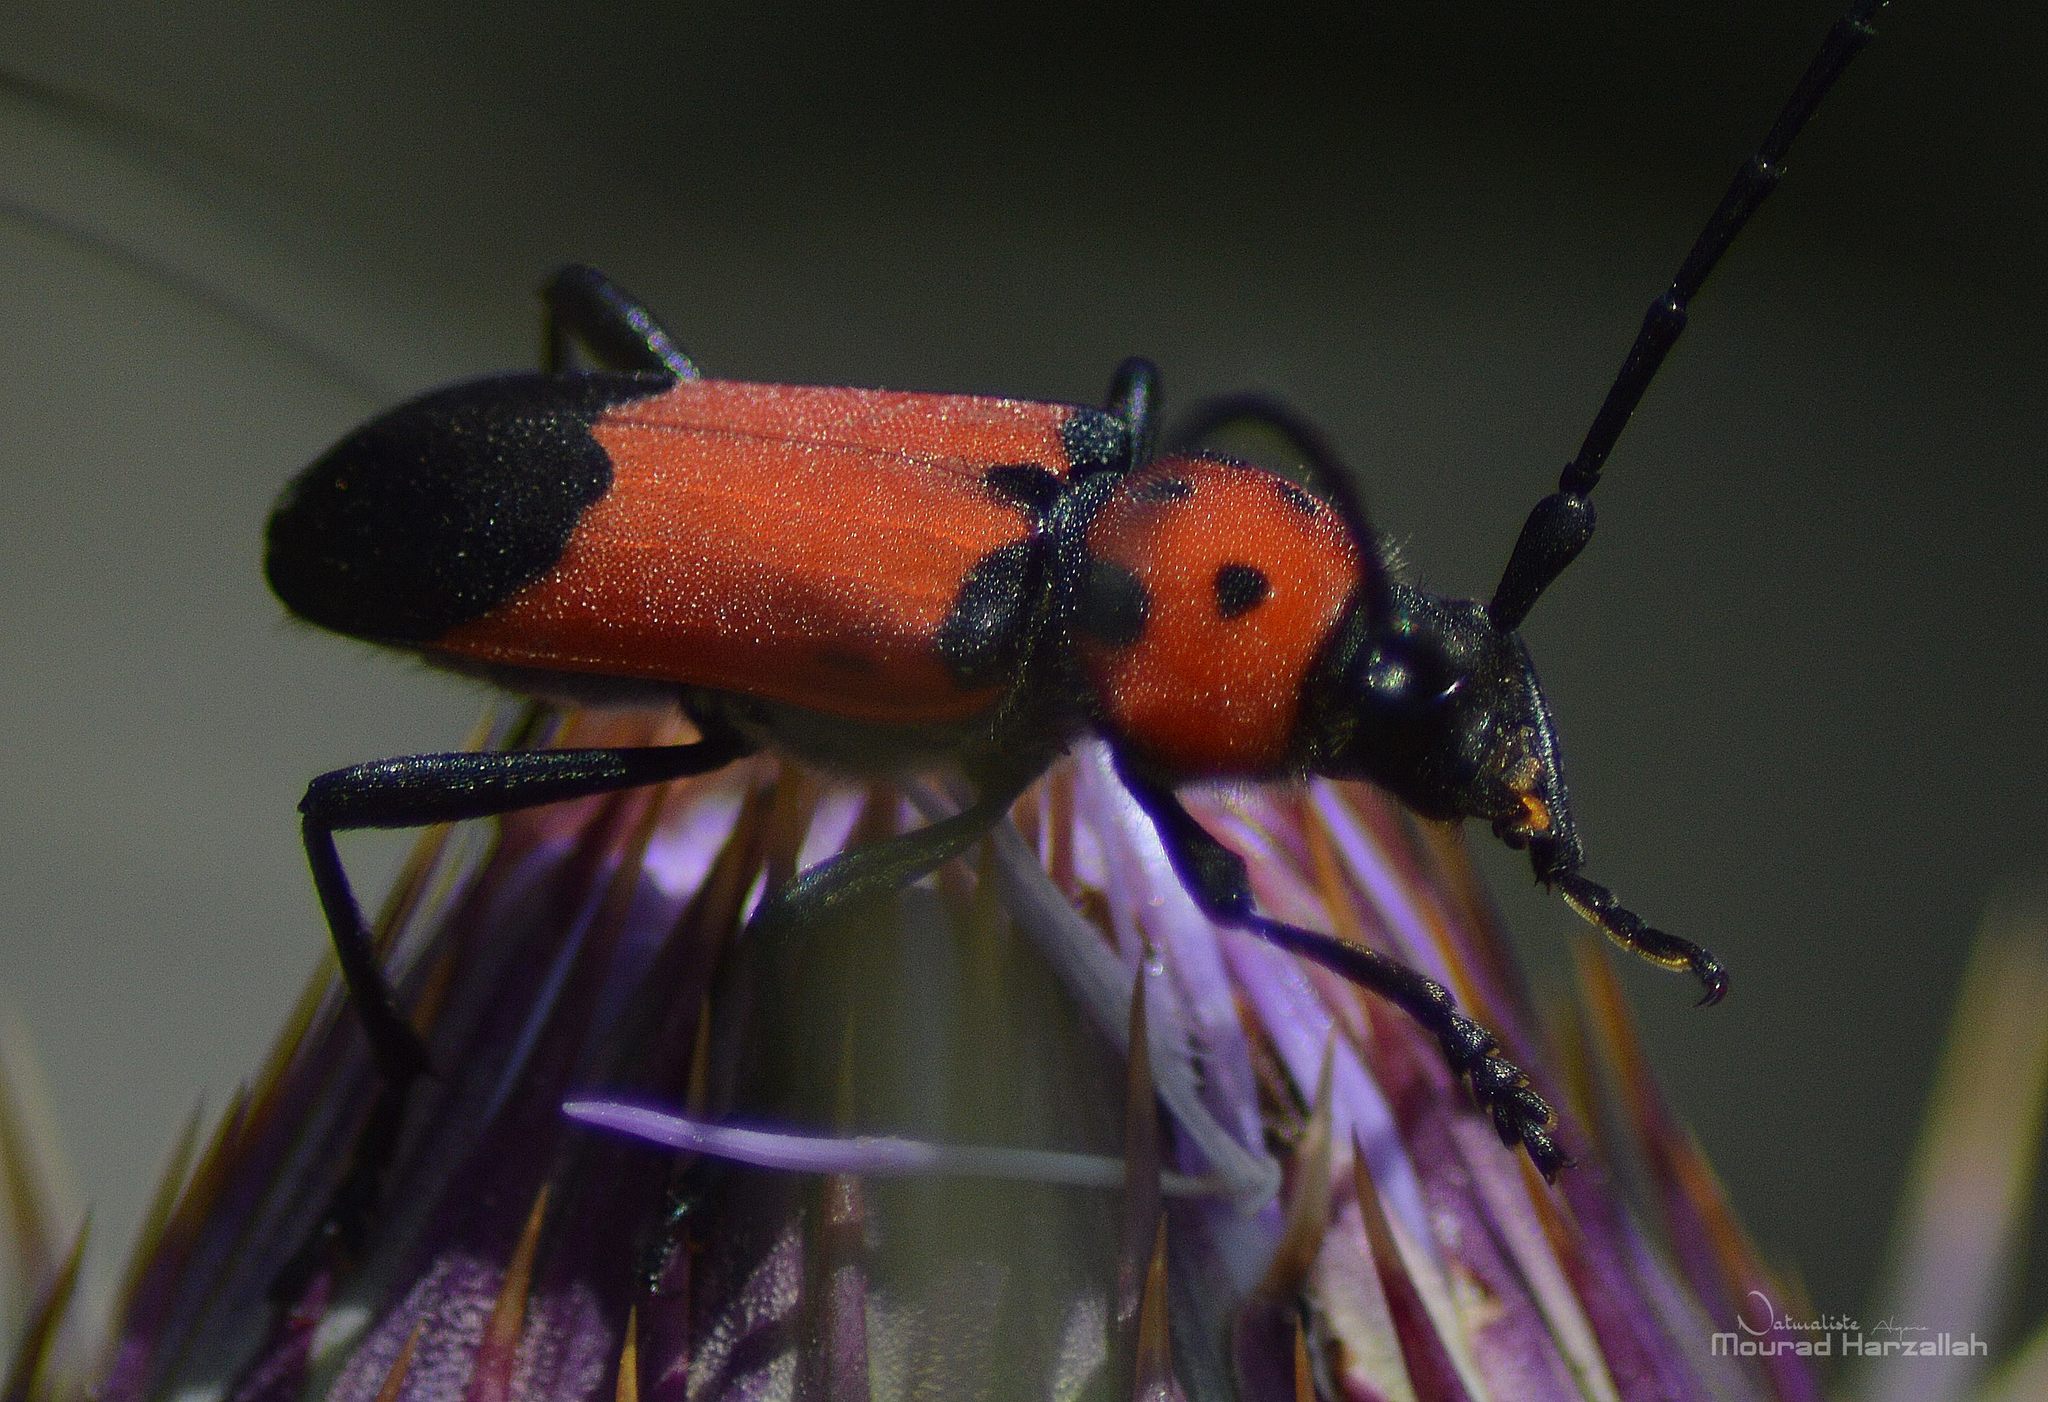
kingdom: Animalia
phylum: Arthropoda
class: Insecta
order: Coleoptera
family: Cerambycidae
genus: Purpuricenus
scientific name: Purpuricenus desfontainii
